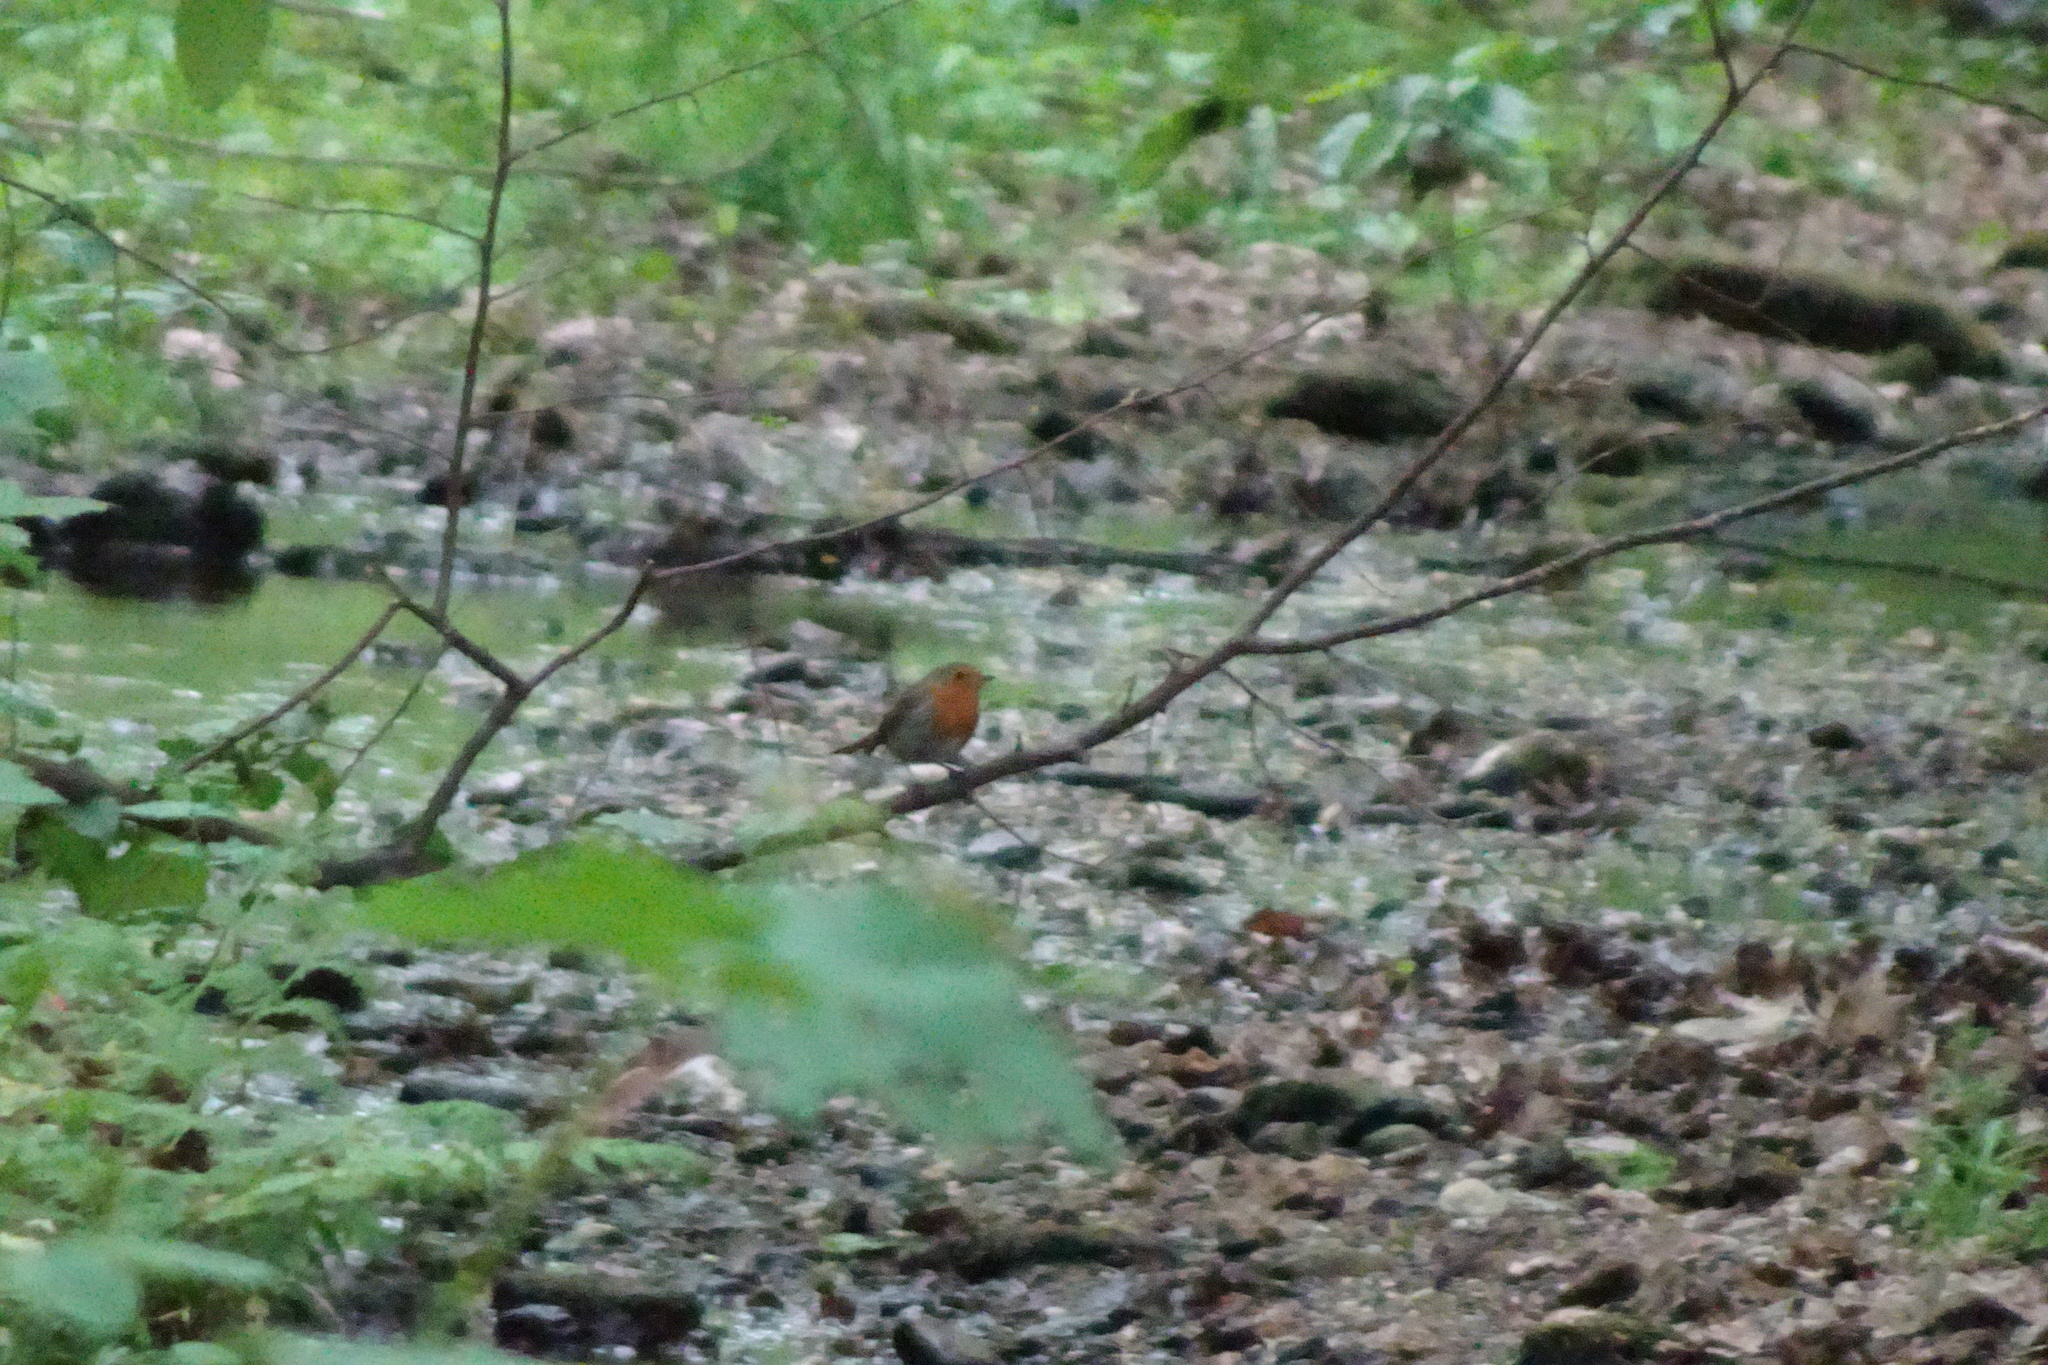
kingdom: Animalia
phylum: Chordata
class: Aves
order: Passeriformes
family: Muscicapidae
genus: Erithacus
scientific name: Erithacus rubecula
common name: European robin
